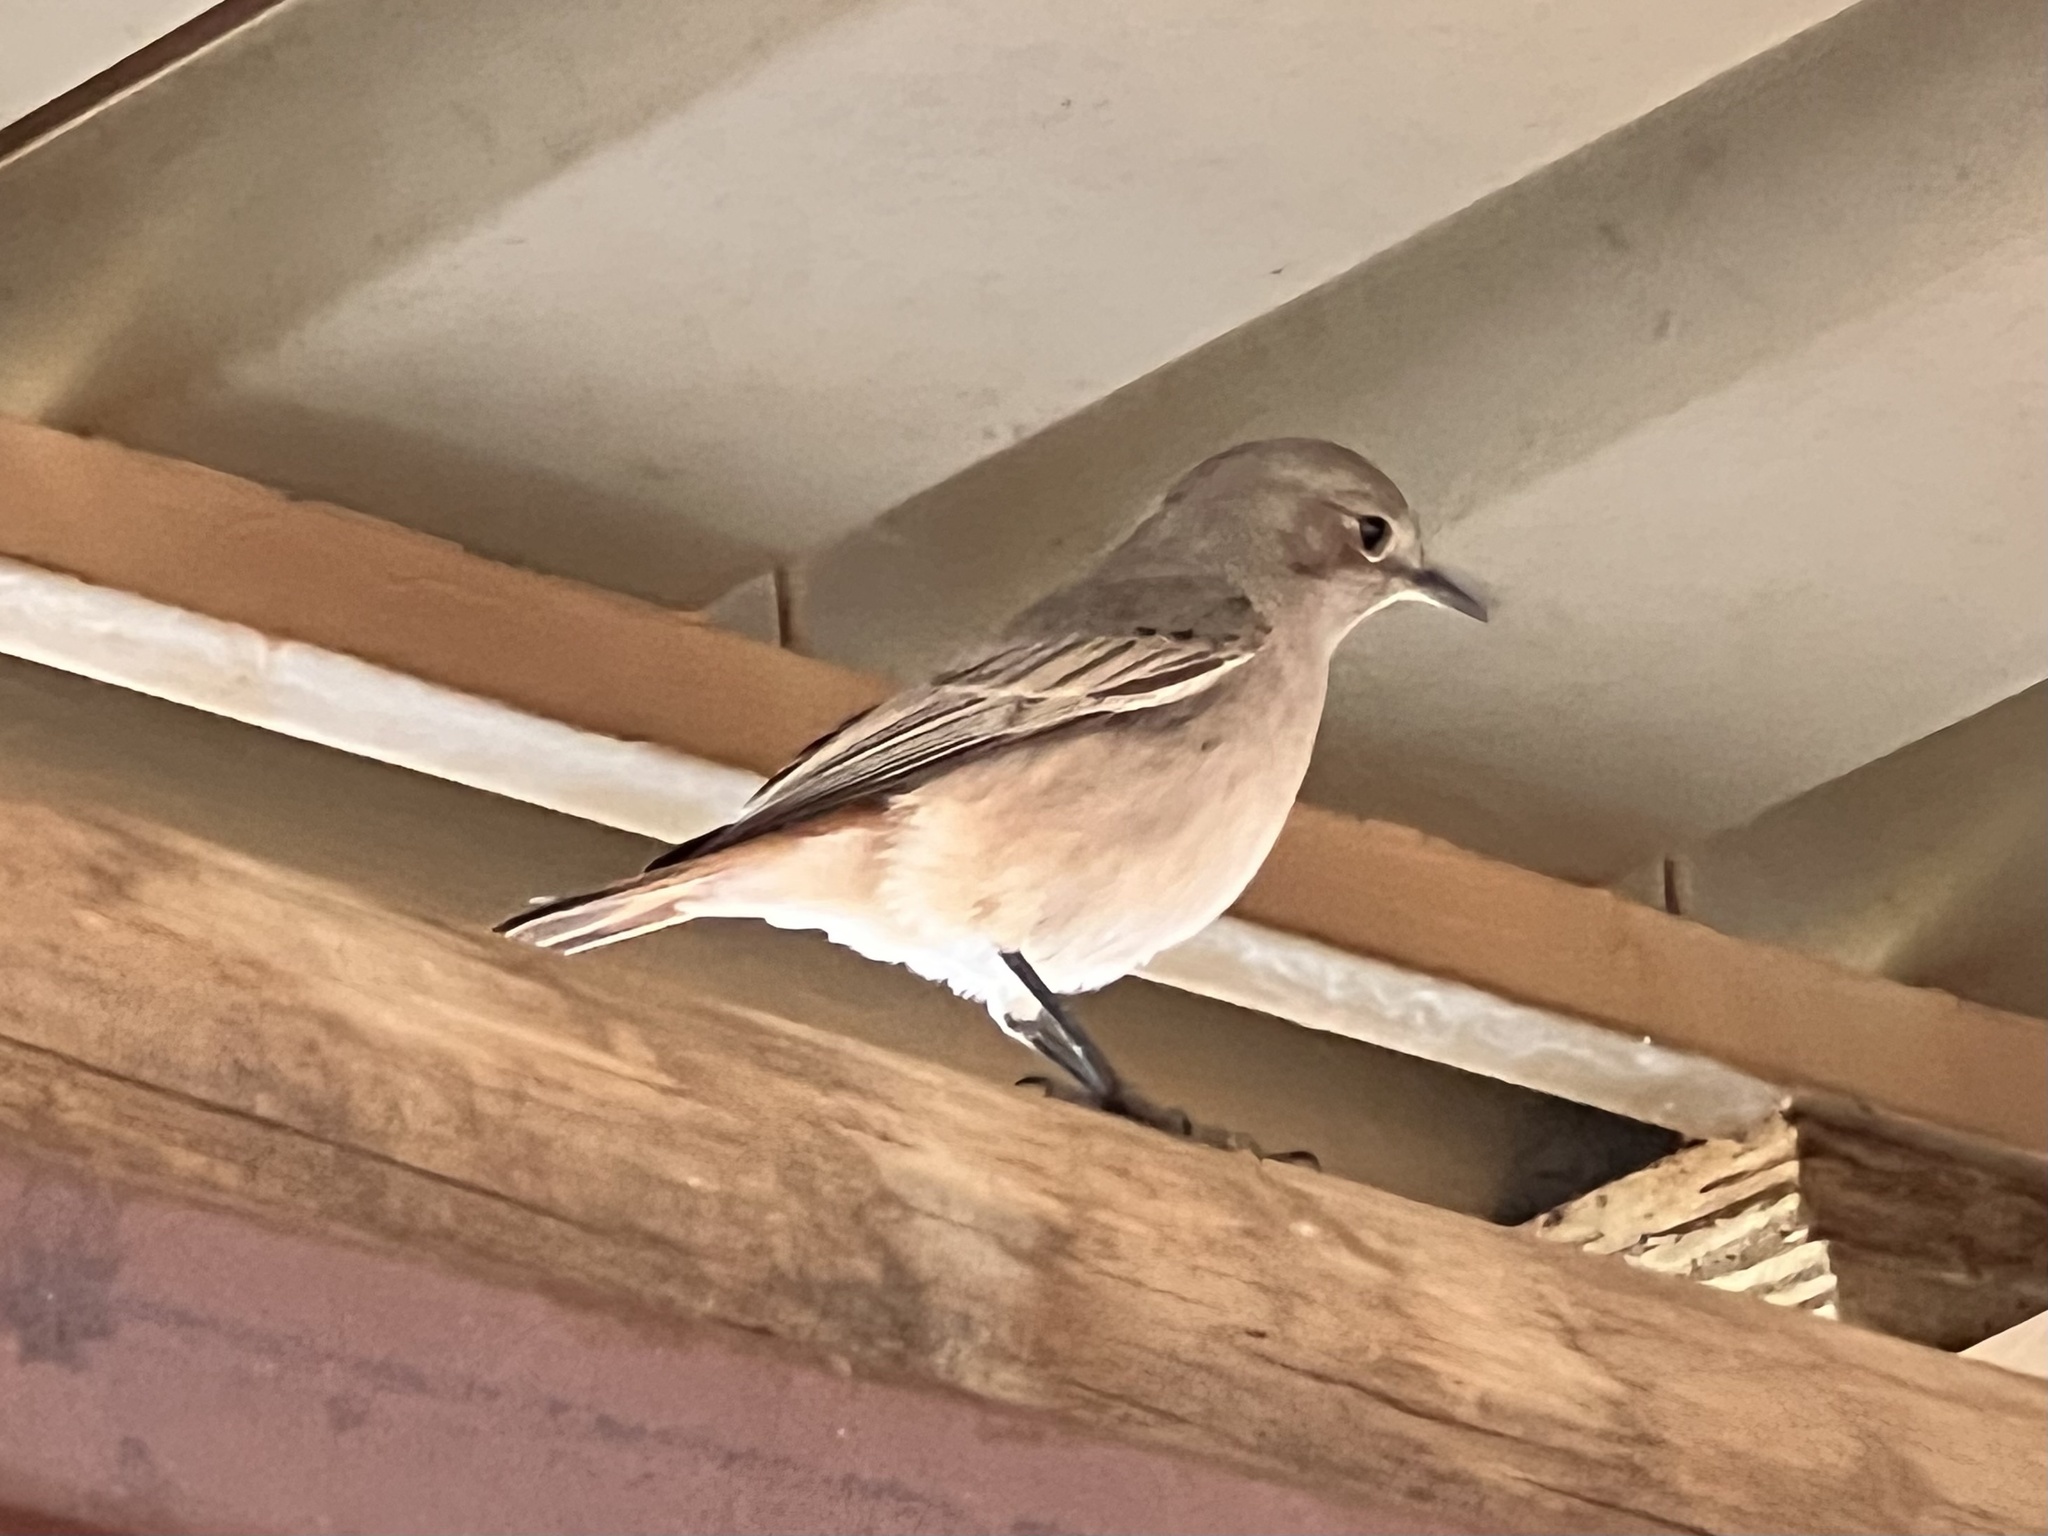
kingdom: Animalia
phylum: Chordata
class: Aves
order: Passeriformes
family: Muscicapidae
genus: Oenanthe
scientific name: Oenanthe familiaris
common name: Familiar chat
